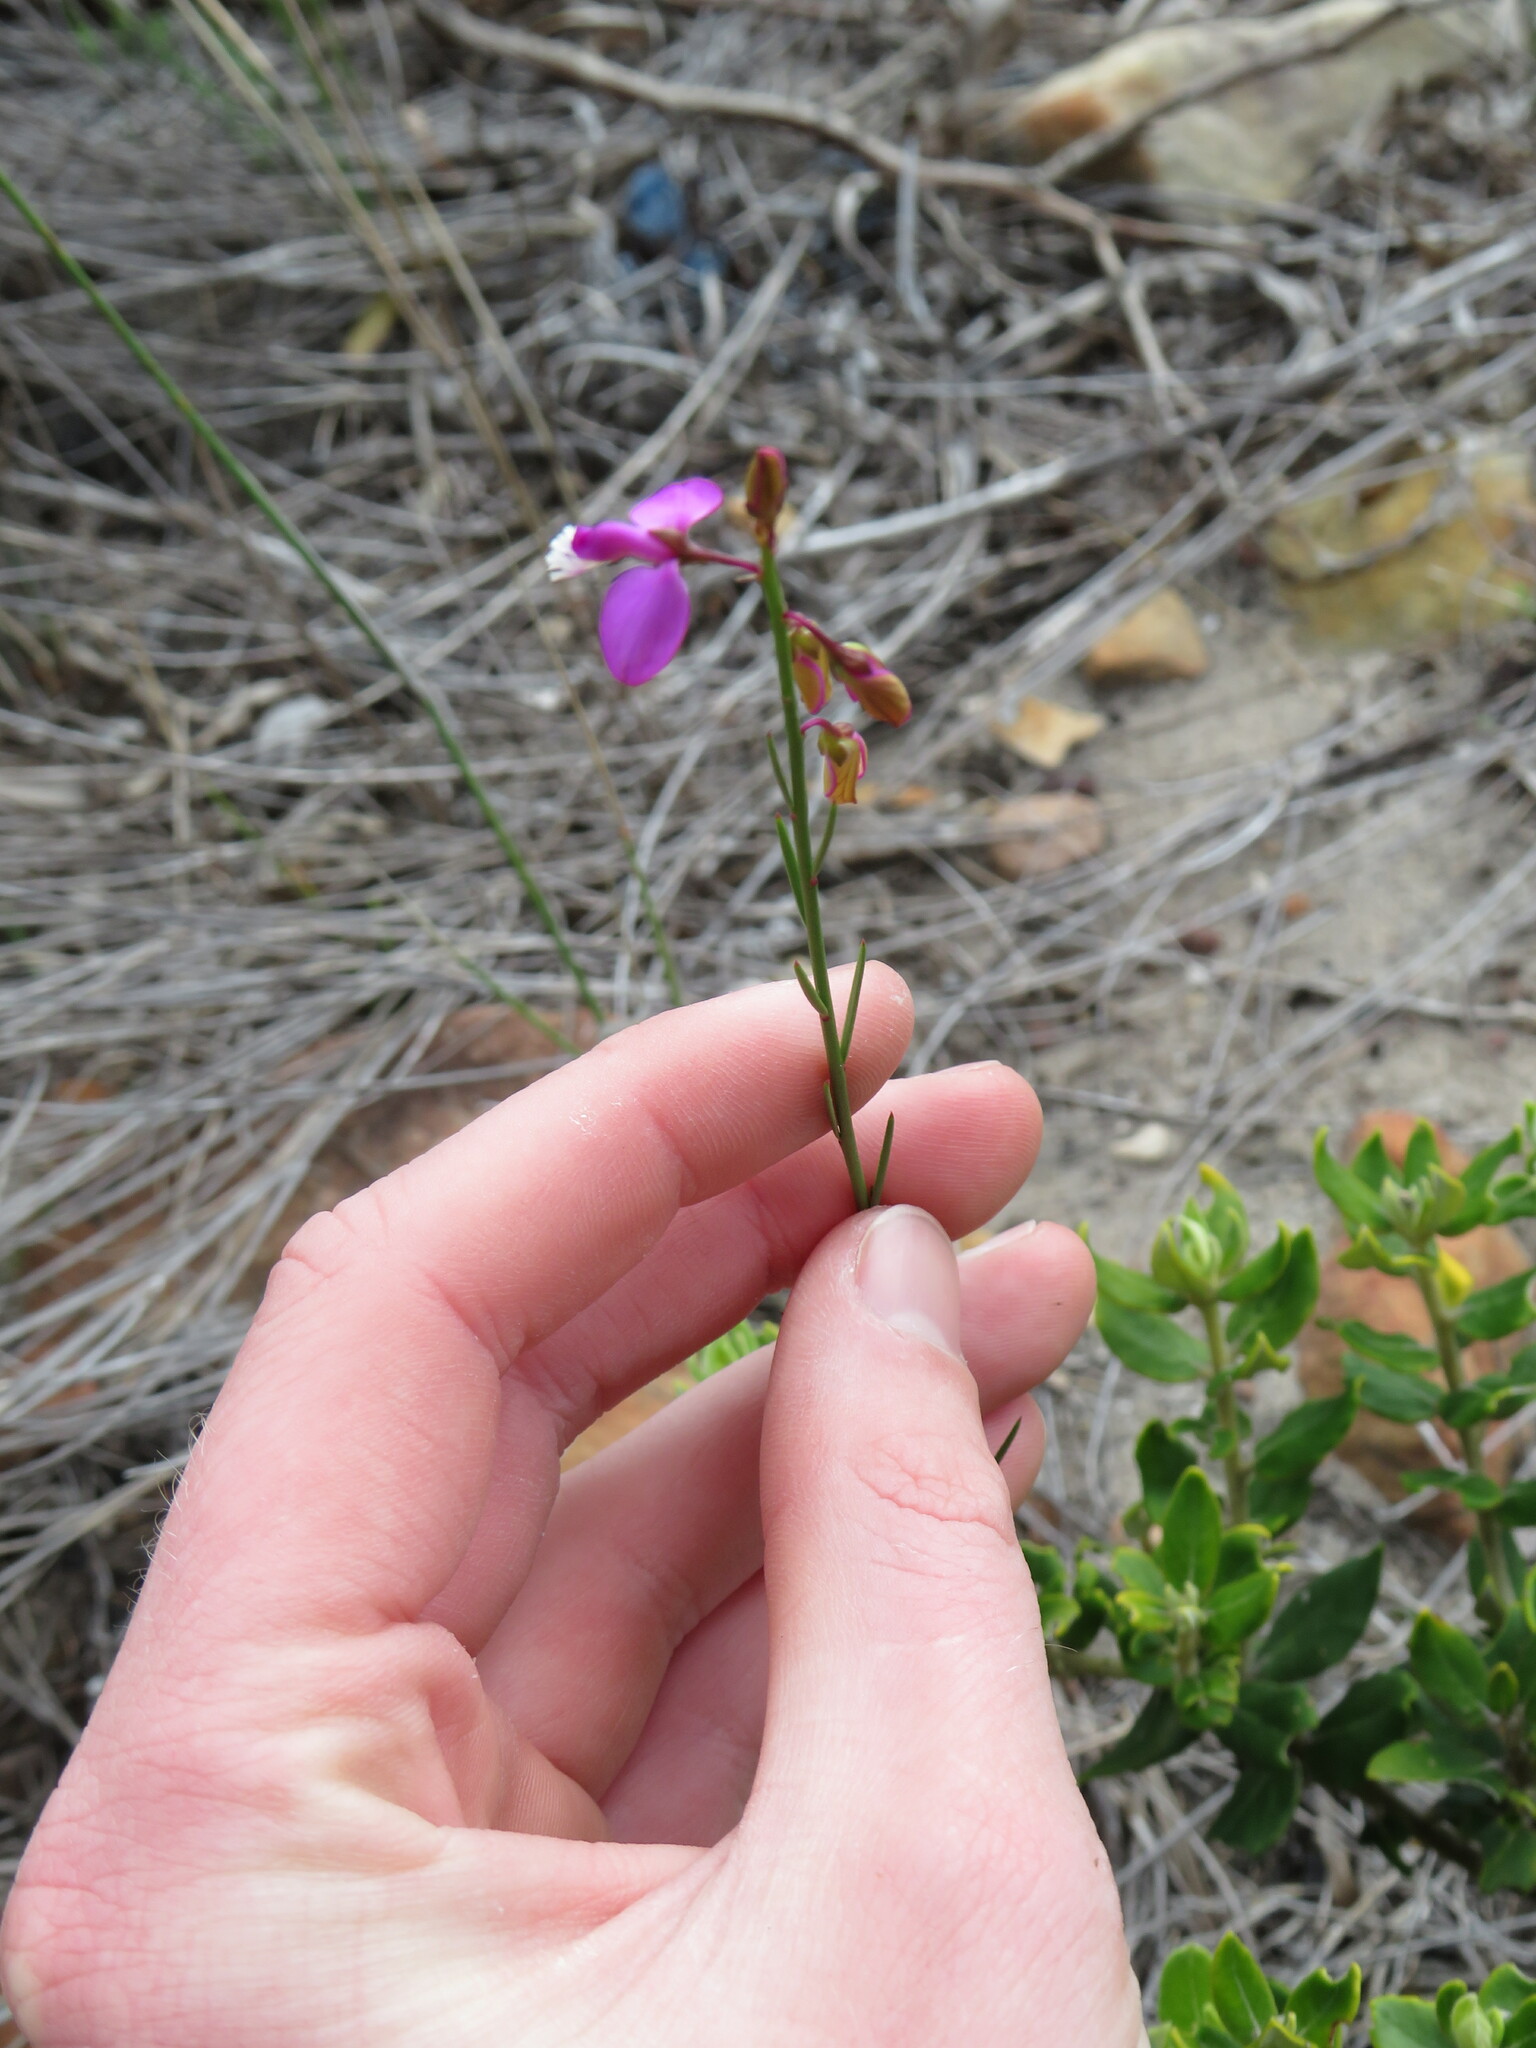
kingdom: Plantae
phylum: Tracheophyta
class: Magnoliopsida
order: Fabales
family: Polygalaceae
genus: Polygala
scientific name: Polygala garcini
